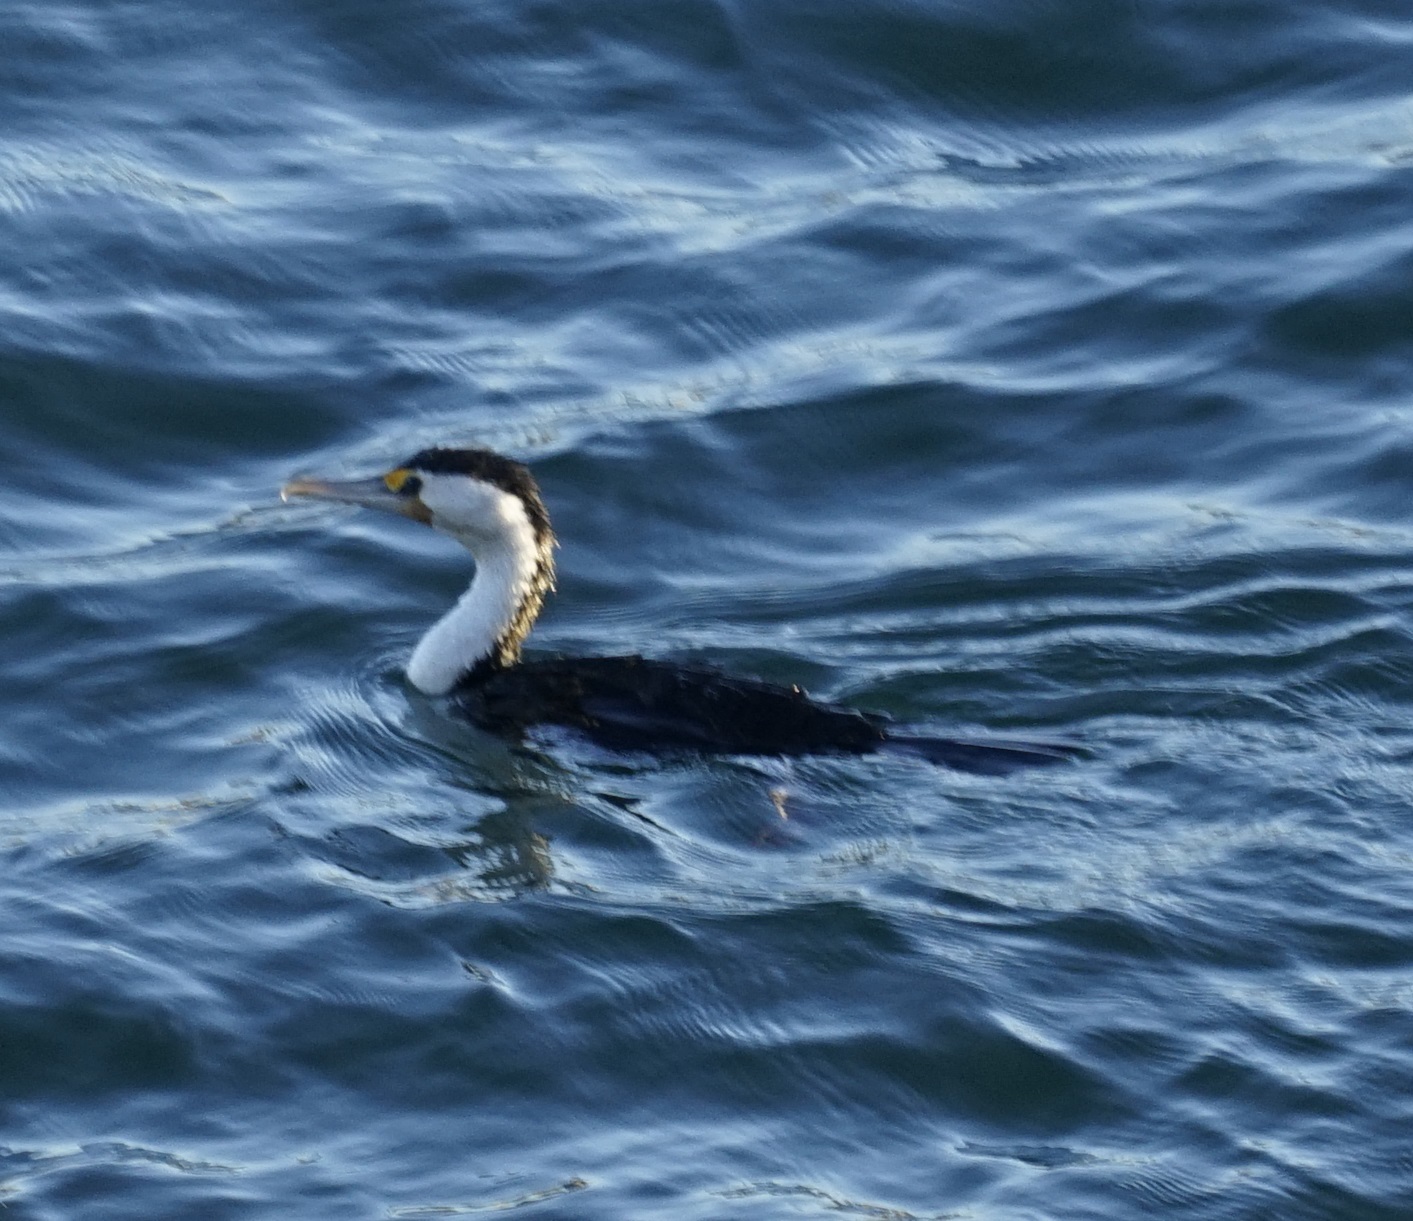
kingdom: Animalia
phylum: Chordata
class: Aves
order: Suliformes
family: Phalacrocoracidae
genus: Phalacrocorax
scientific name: Phalacrocorax varius
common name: Pied cormorant
